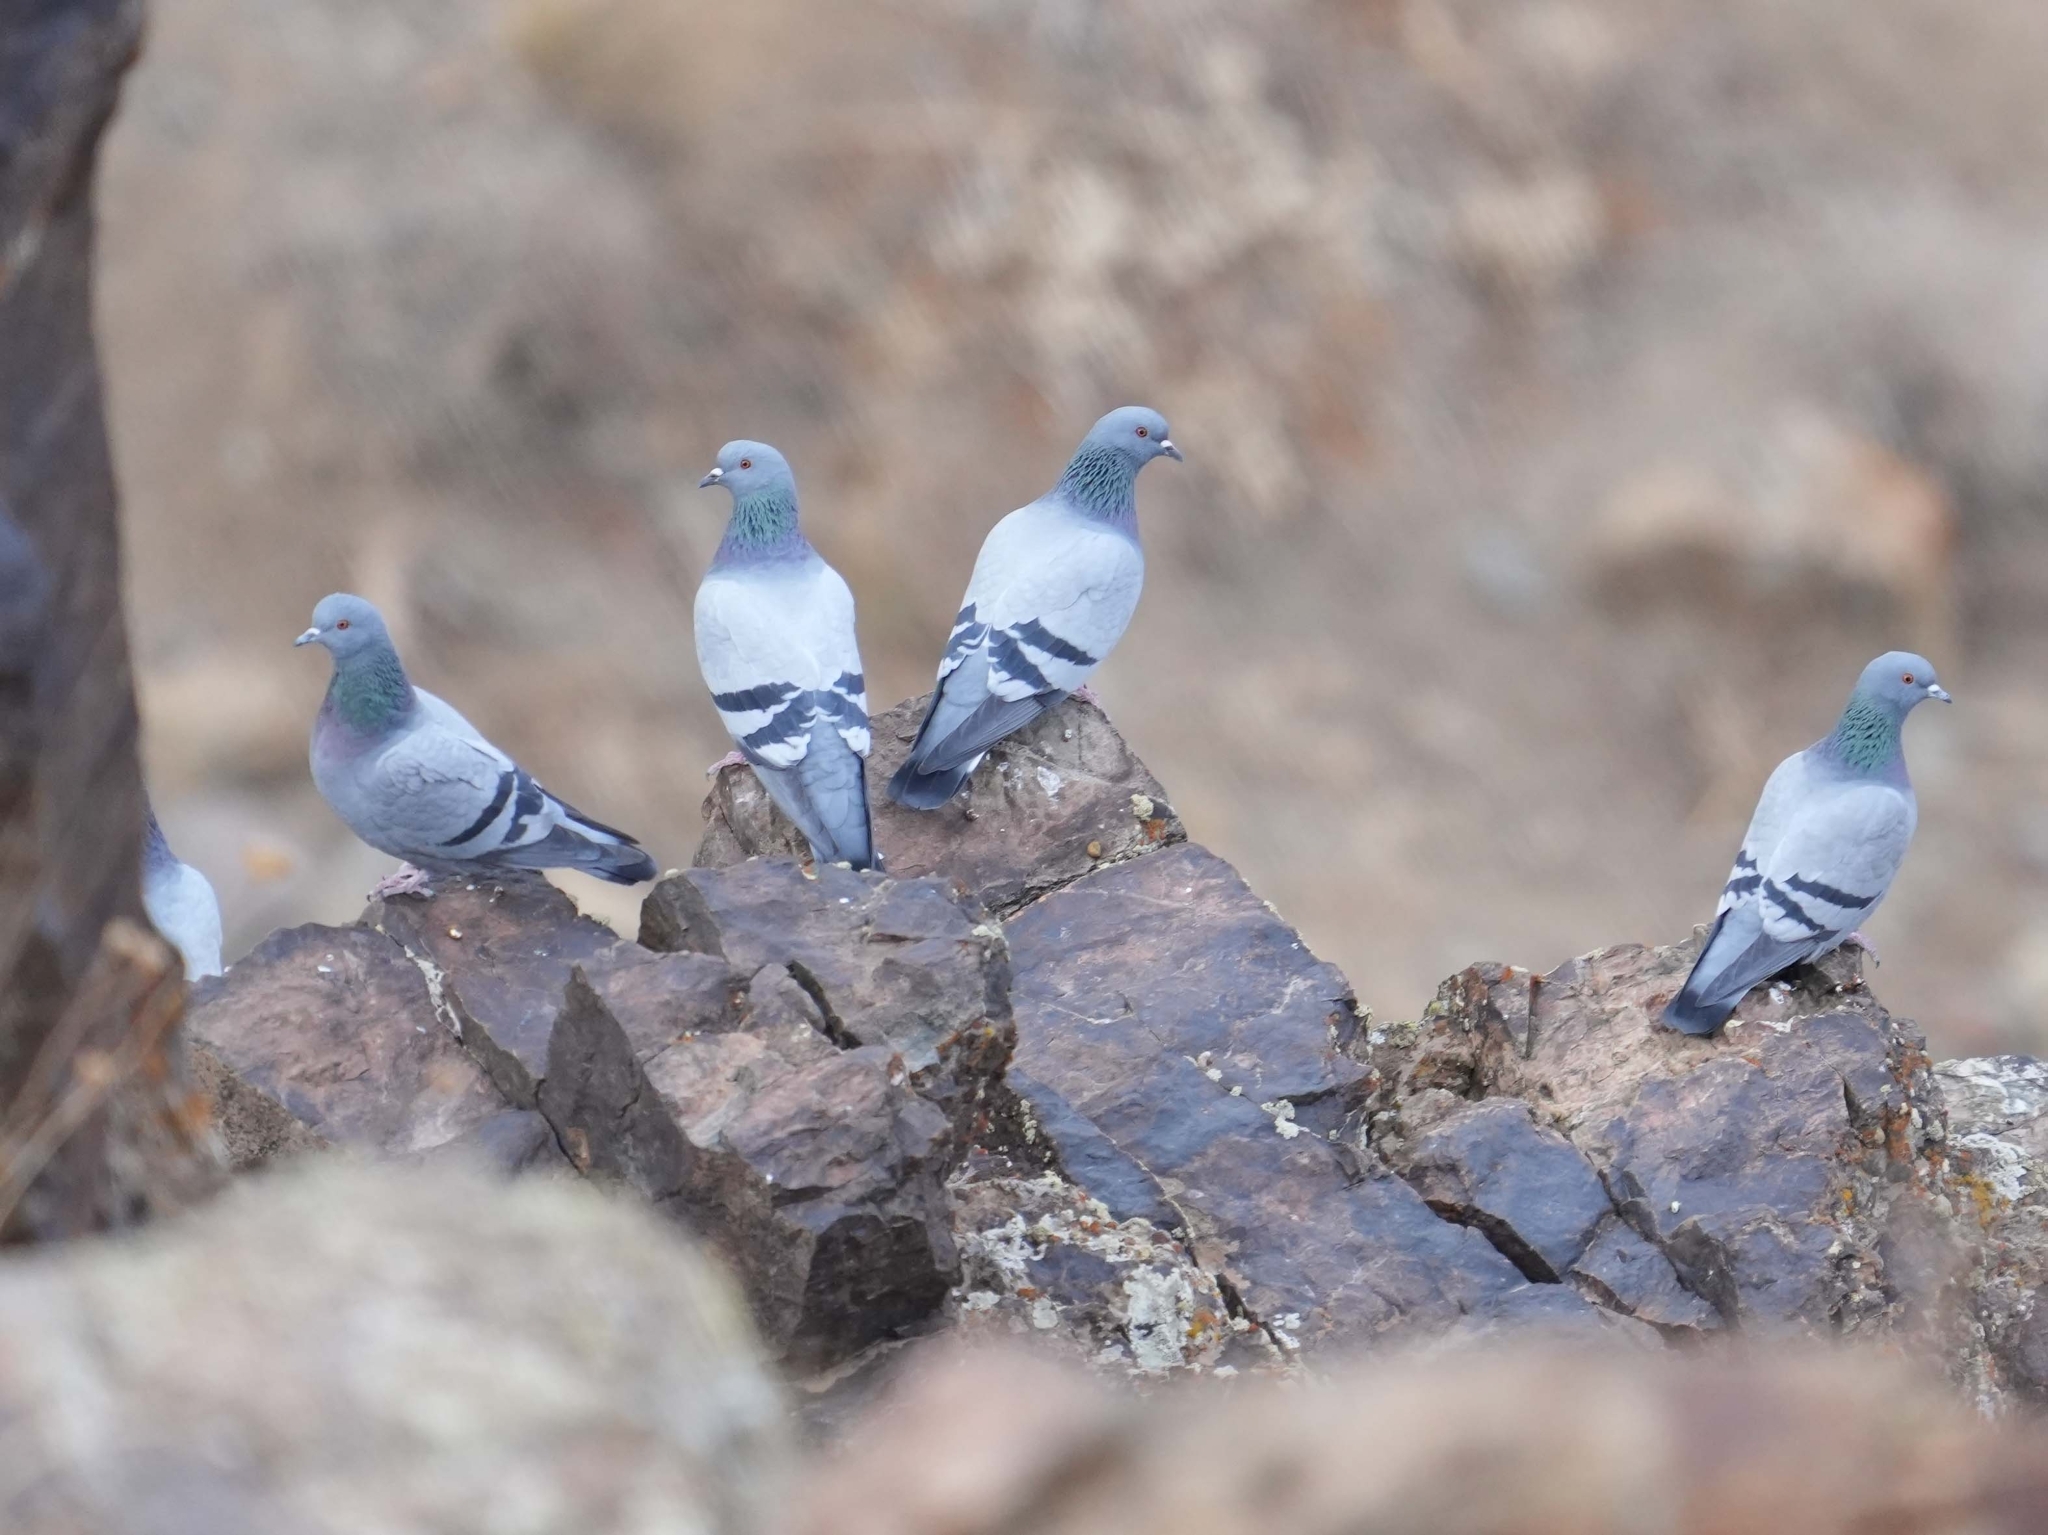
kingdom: Animalia
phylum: Chordata
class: Aves
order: Columbiformes
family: Columbidae
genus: Columba
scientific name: Columba livia
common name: Rock pigeon
